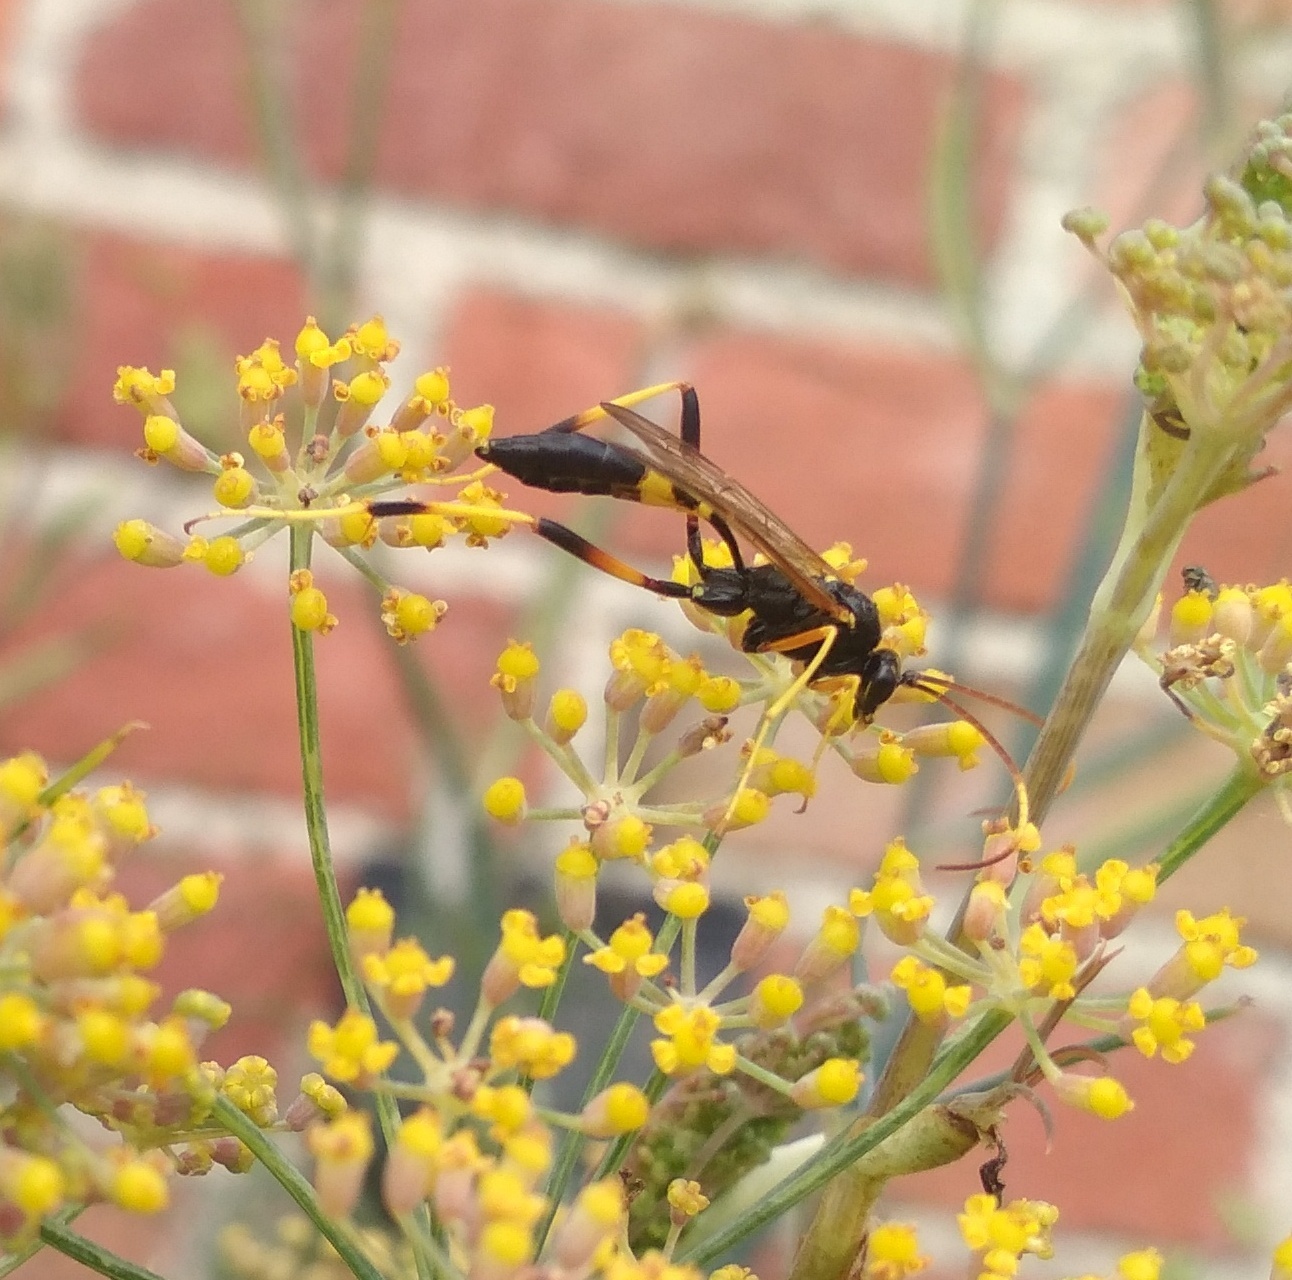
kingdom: Animalia
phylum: Arthropoda
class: Insecta
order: Hymenoptera
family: Ichneumonidae
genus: Acroricnus
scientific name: Acroricnus seductor
